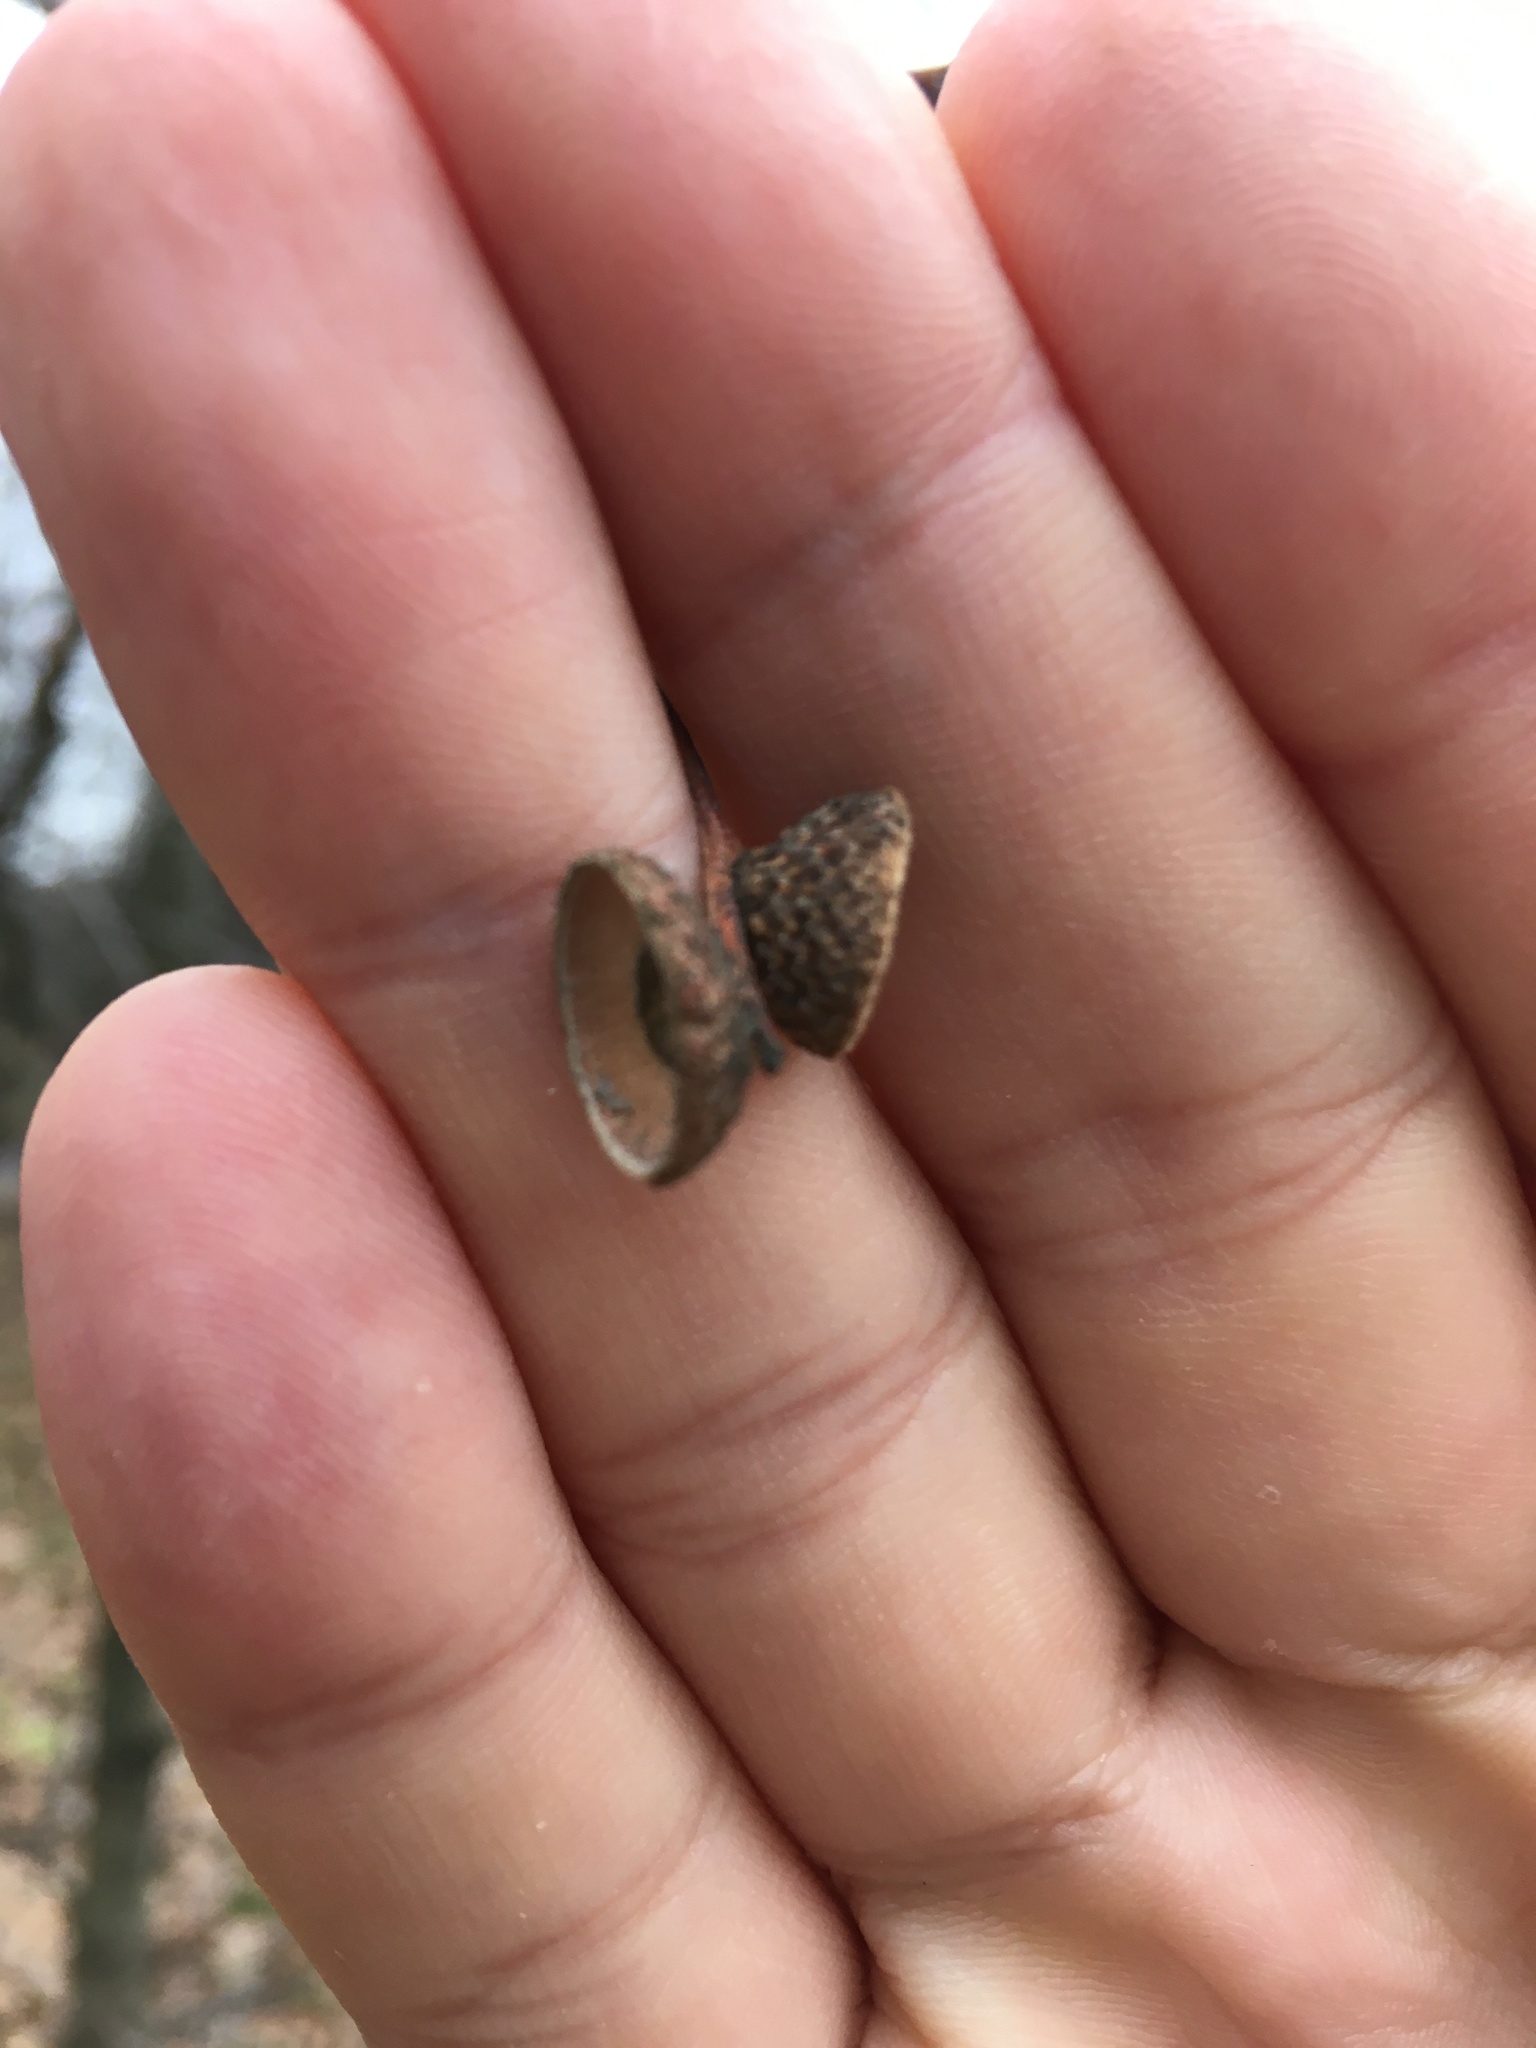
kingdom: Plantae
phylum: Tracheophyta
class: Magnoliopsida
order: Fagales
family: Fagaceae
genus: Quercus
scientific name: Quercus robur
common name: Pedunculate oak
